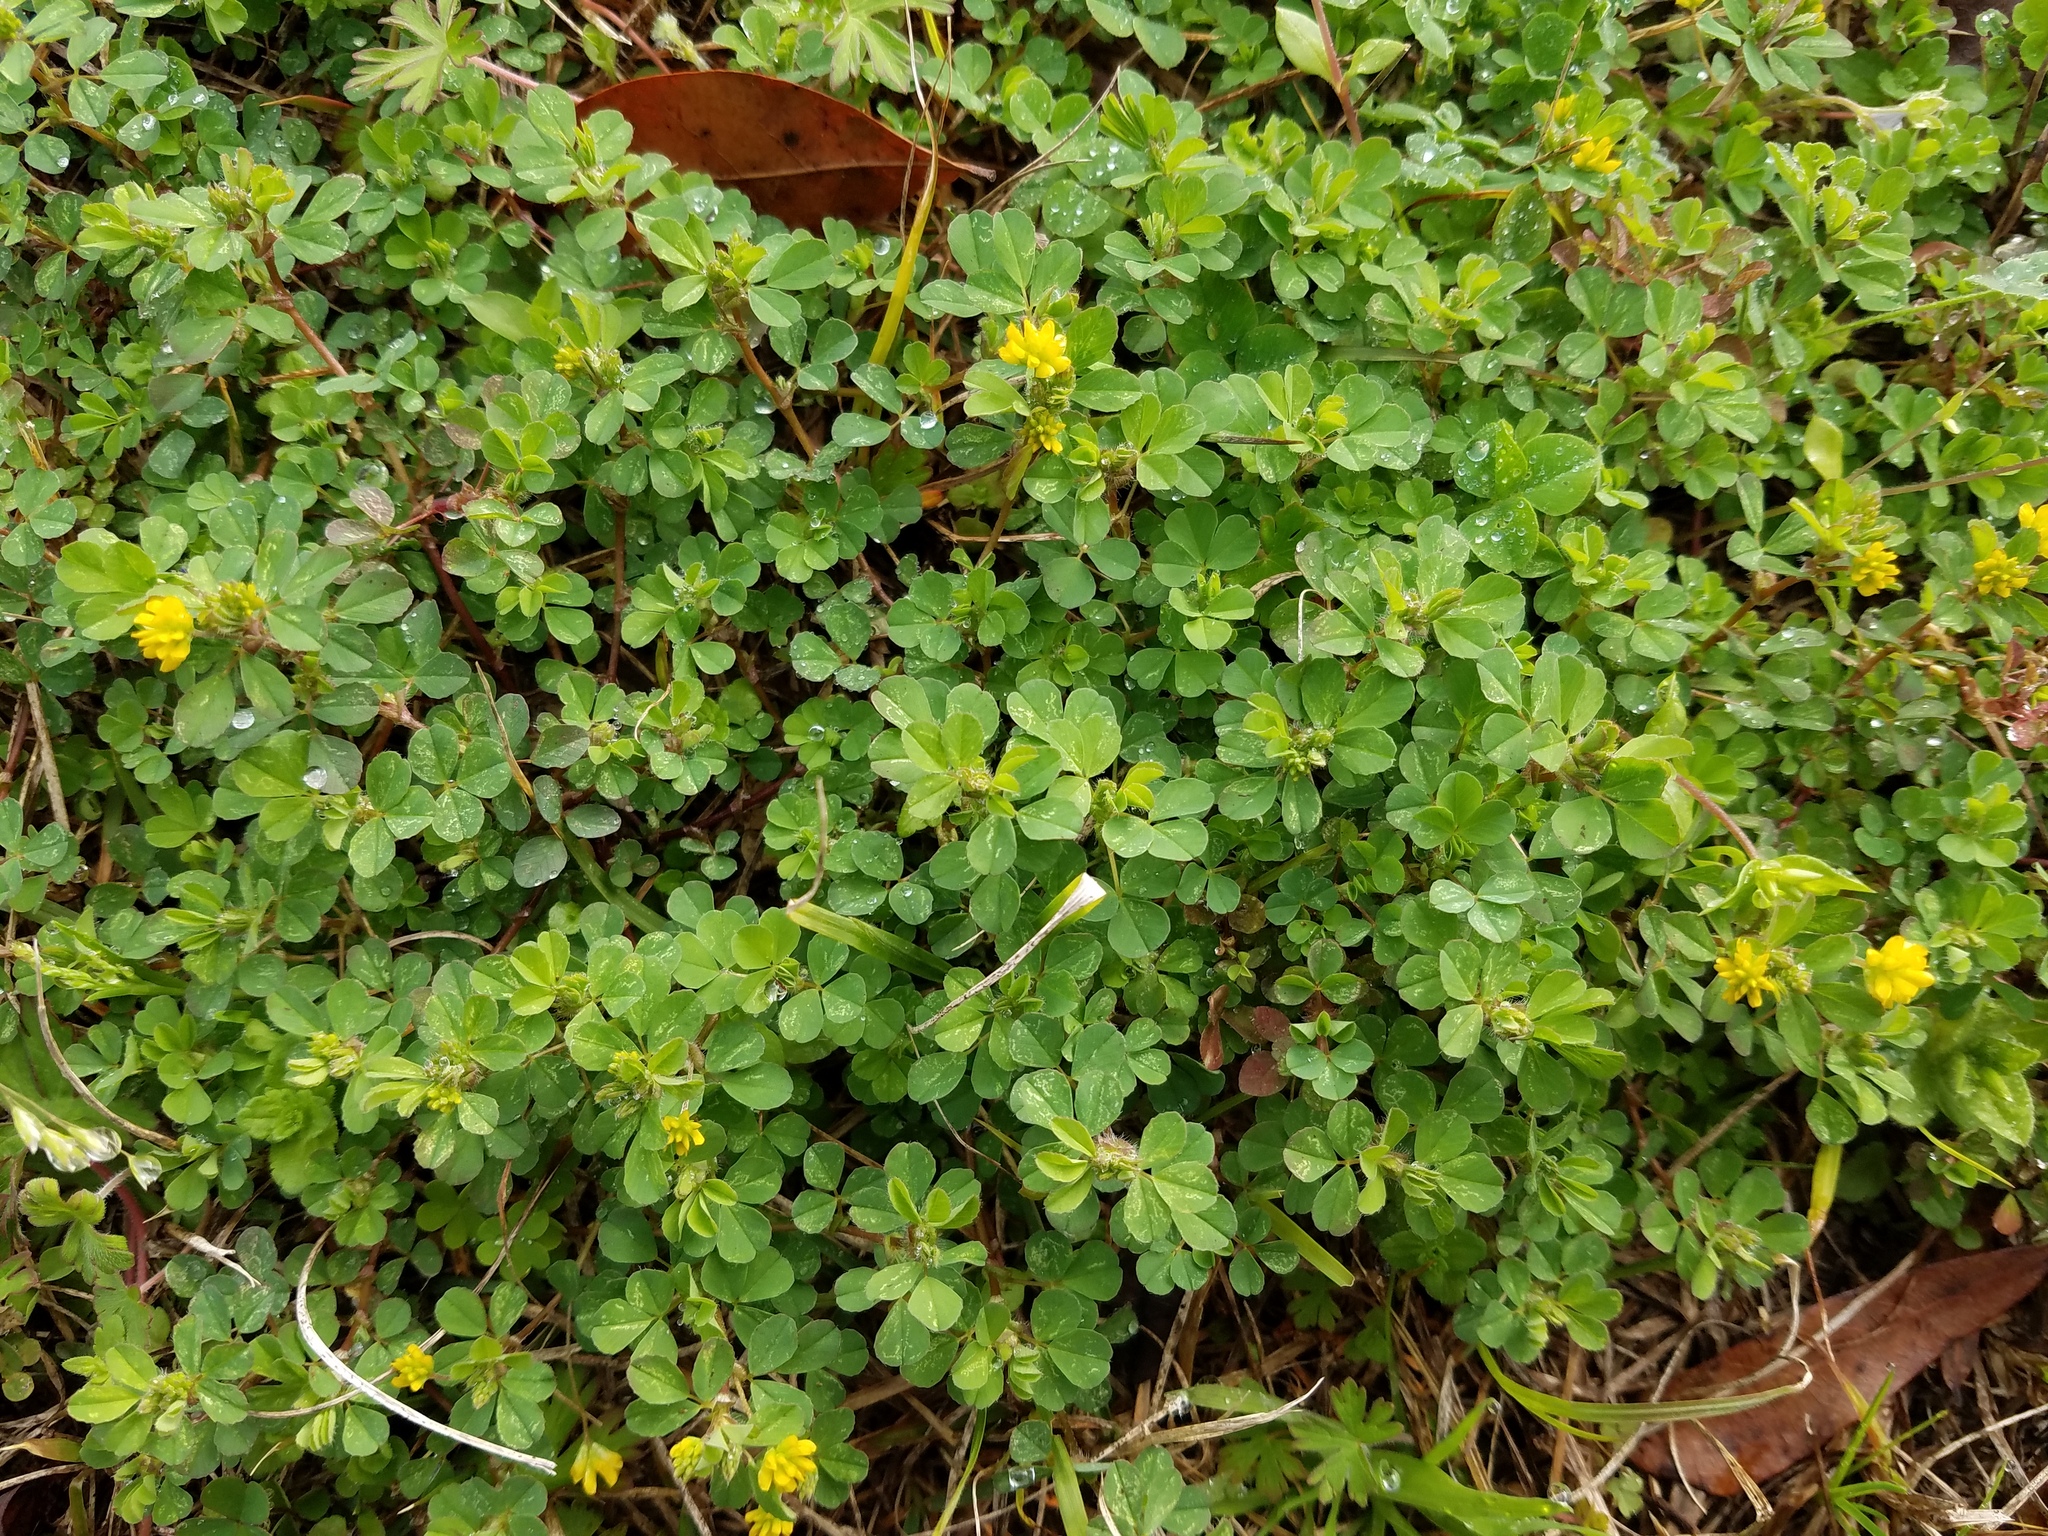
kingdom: Plantae
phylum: Tracheophyta
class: Magnoliopsida
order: Fabales
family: Fabaceae
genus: Trifolium
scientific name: Trifolium dubium
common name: Suckling clover
